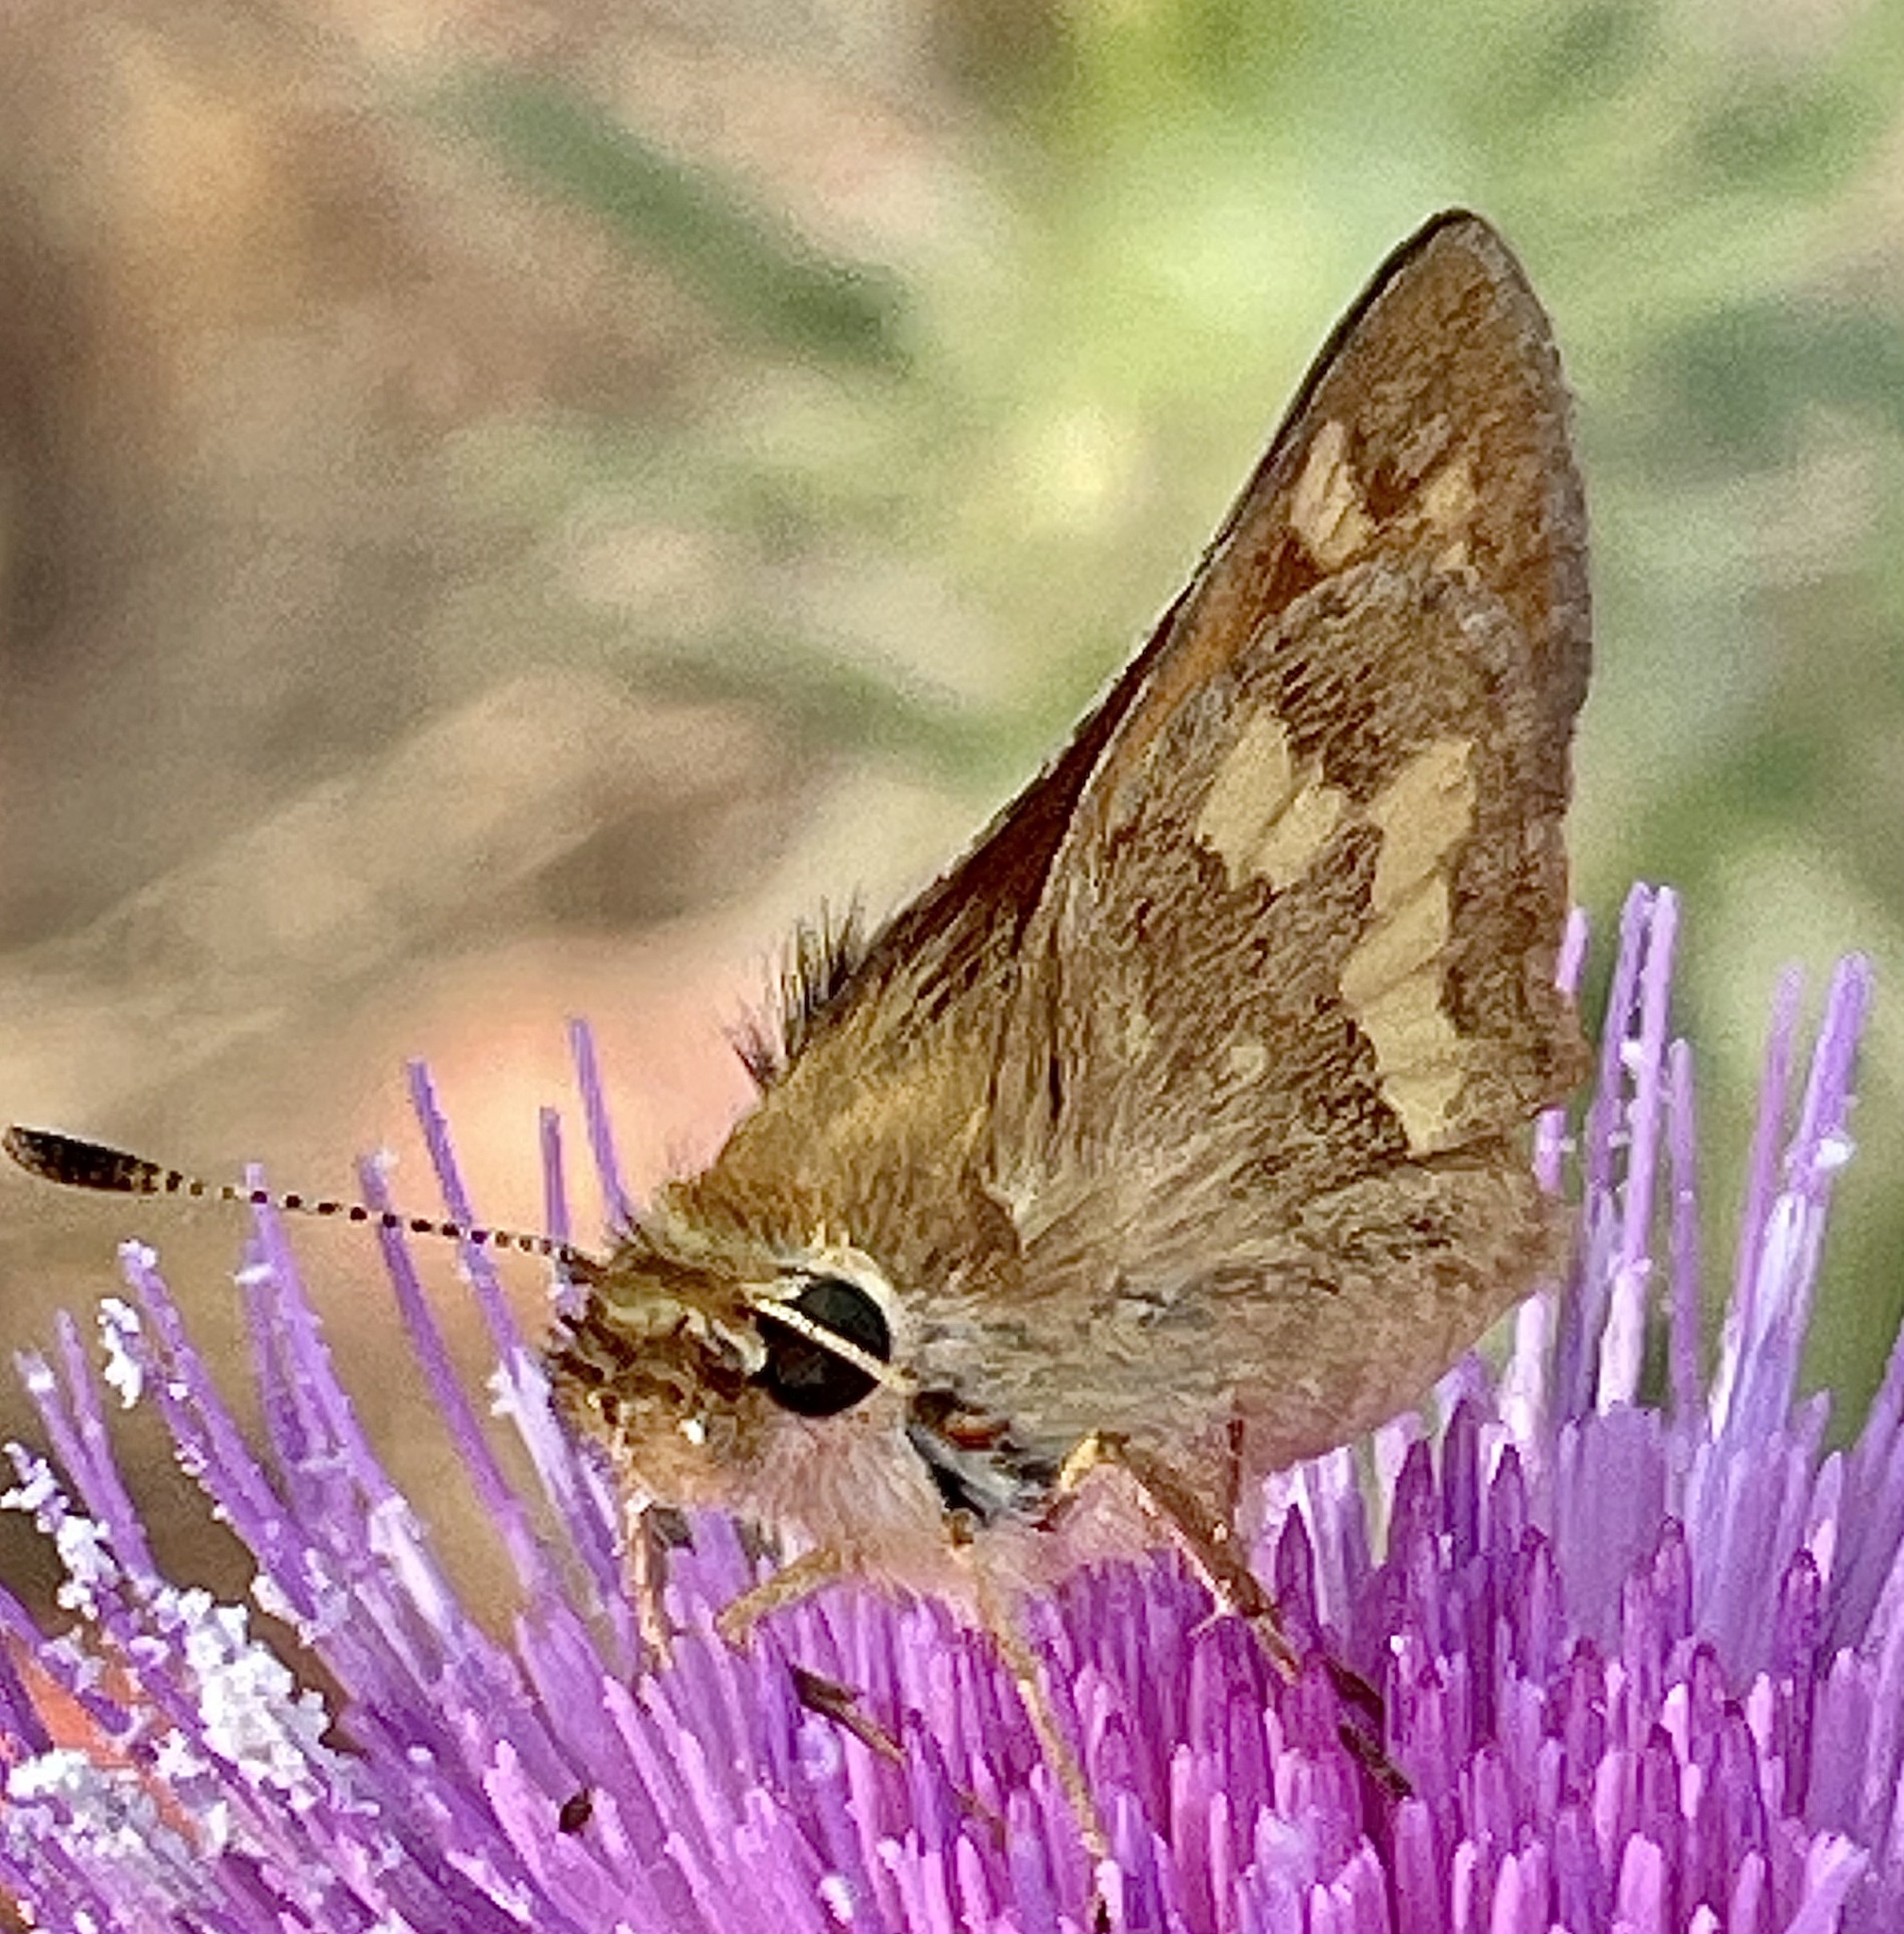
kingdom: Animalia
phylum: Arthropoda
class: Insecta
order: Lepidoptera
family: Hesperiidae
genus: Ochlodes
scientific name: Ochlodes sylvanoides
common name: Woodland skipper
